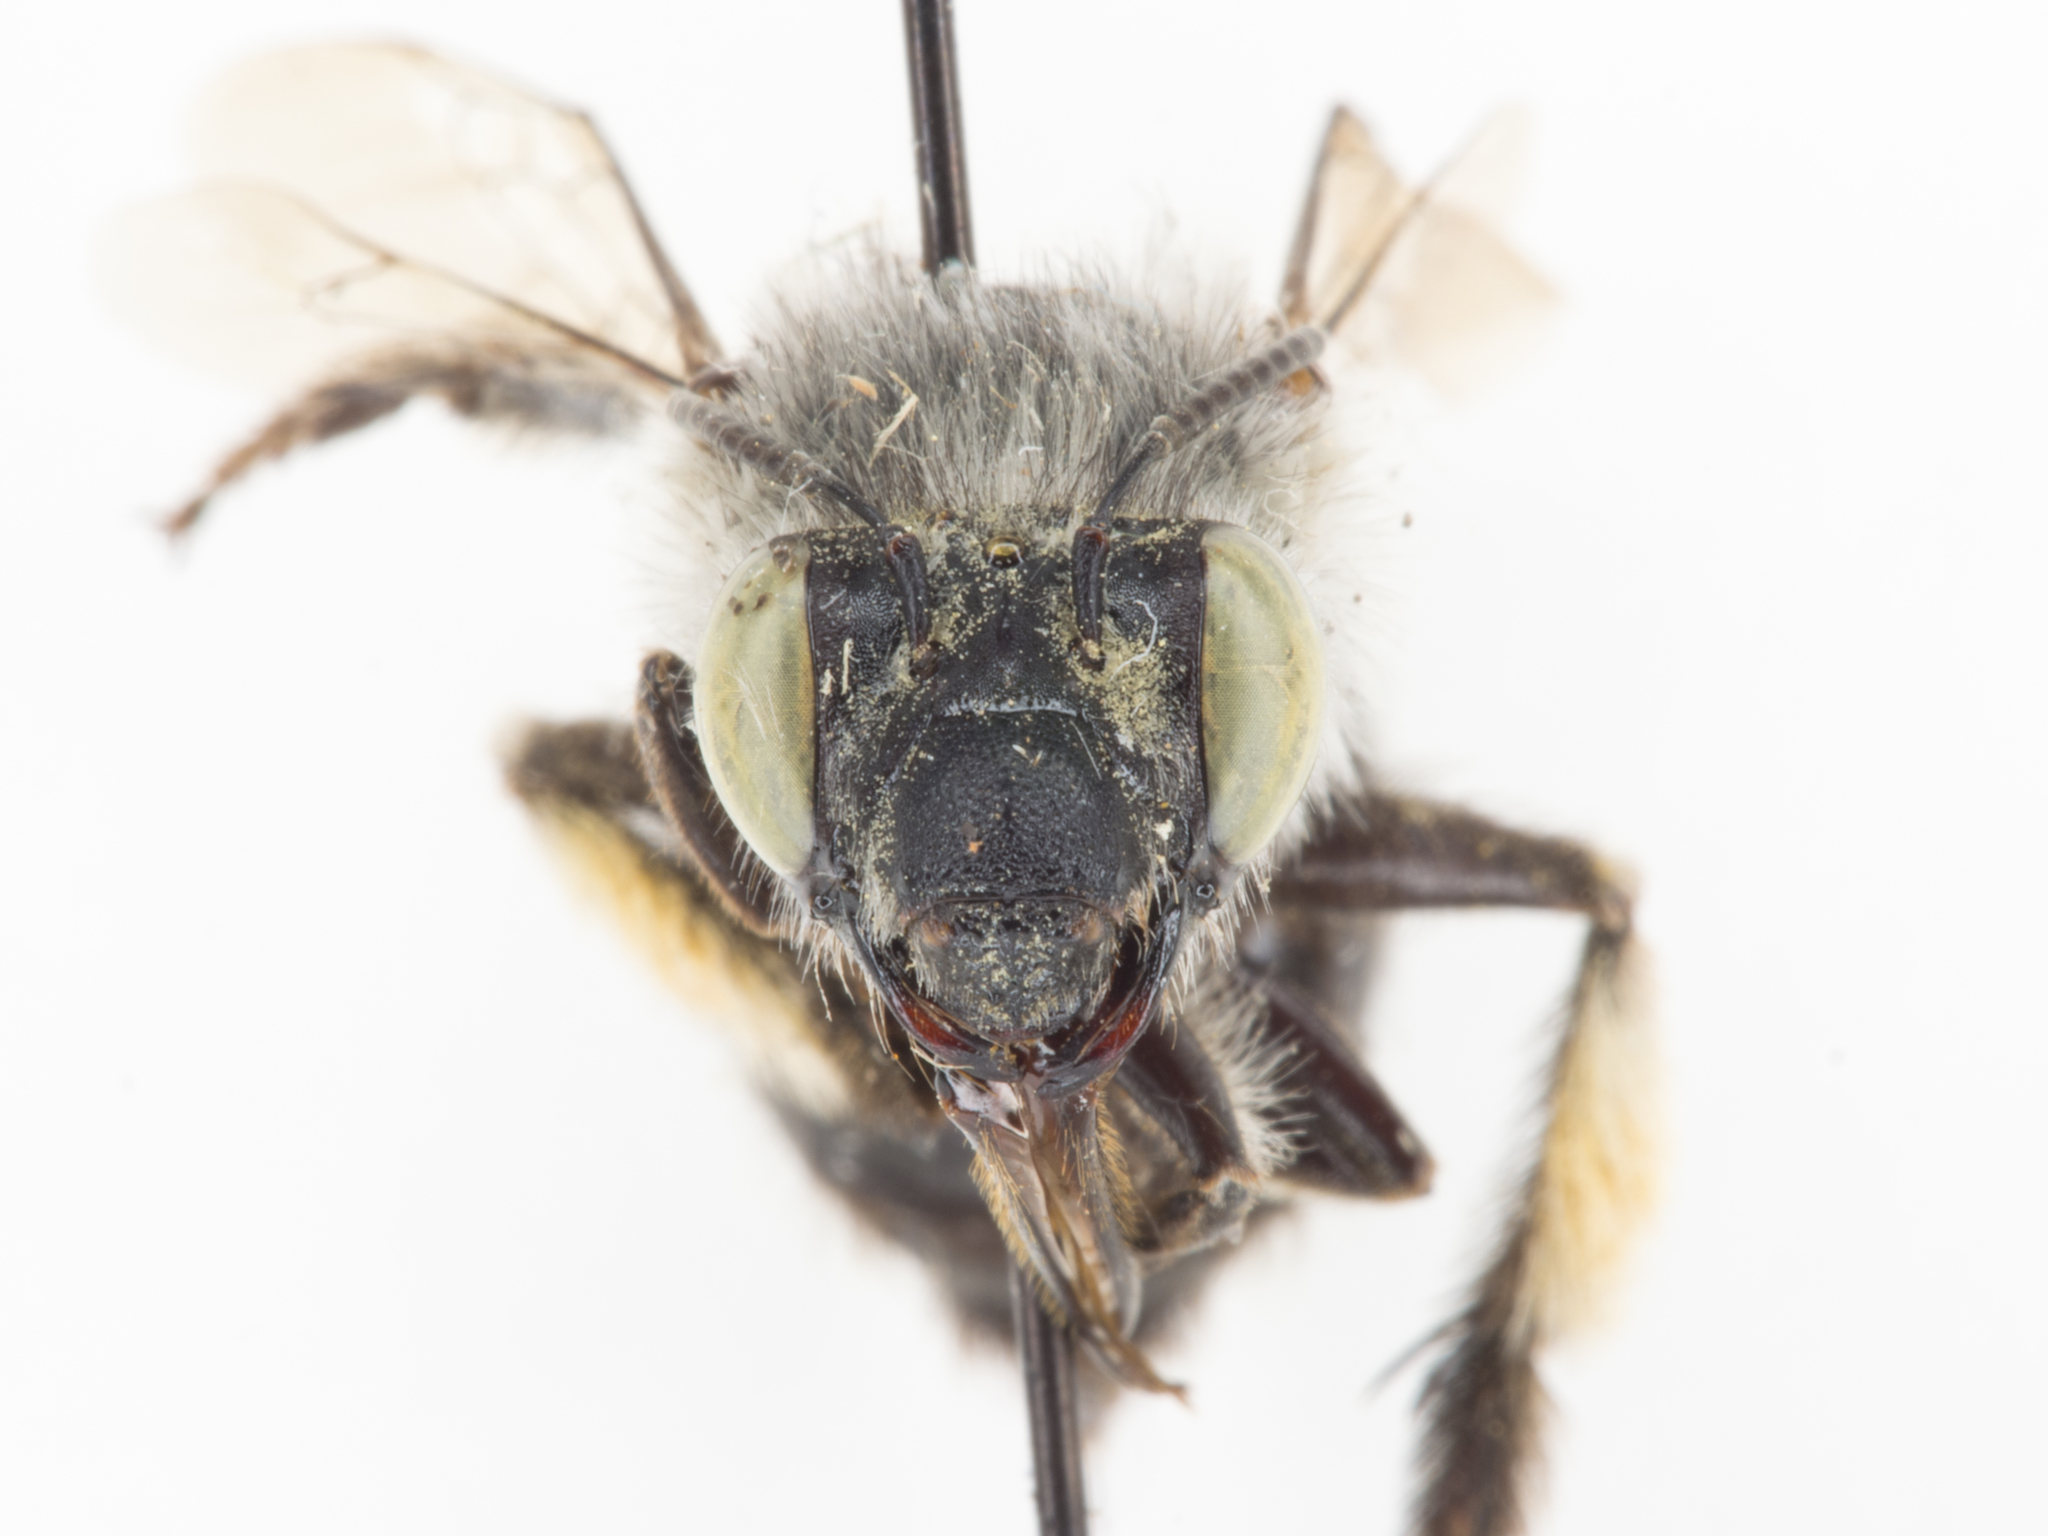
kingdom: Animalia
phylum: Arthropoda
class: Insecta
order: Hymenoptera
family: Apidae
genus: Anthophora
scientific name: Anthophora ursina
